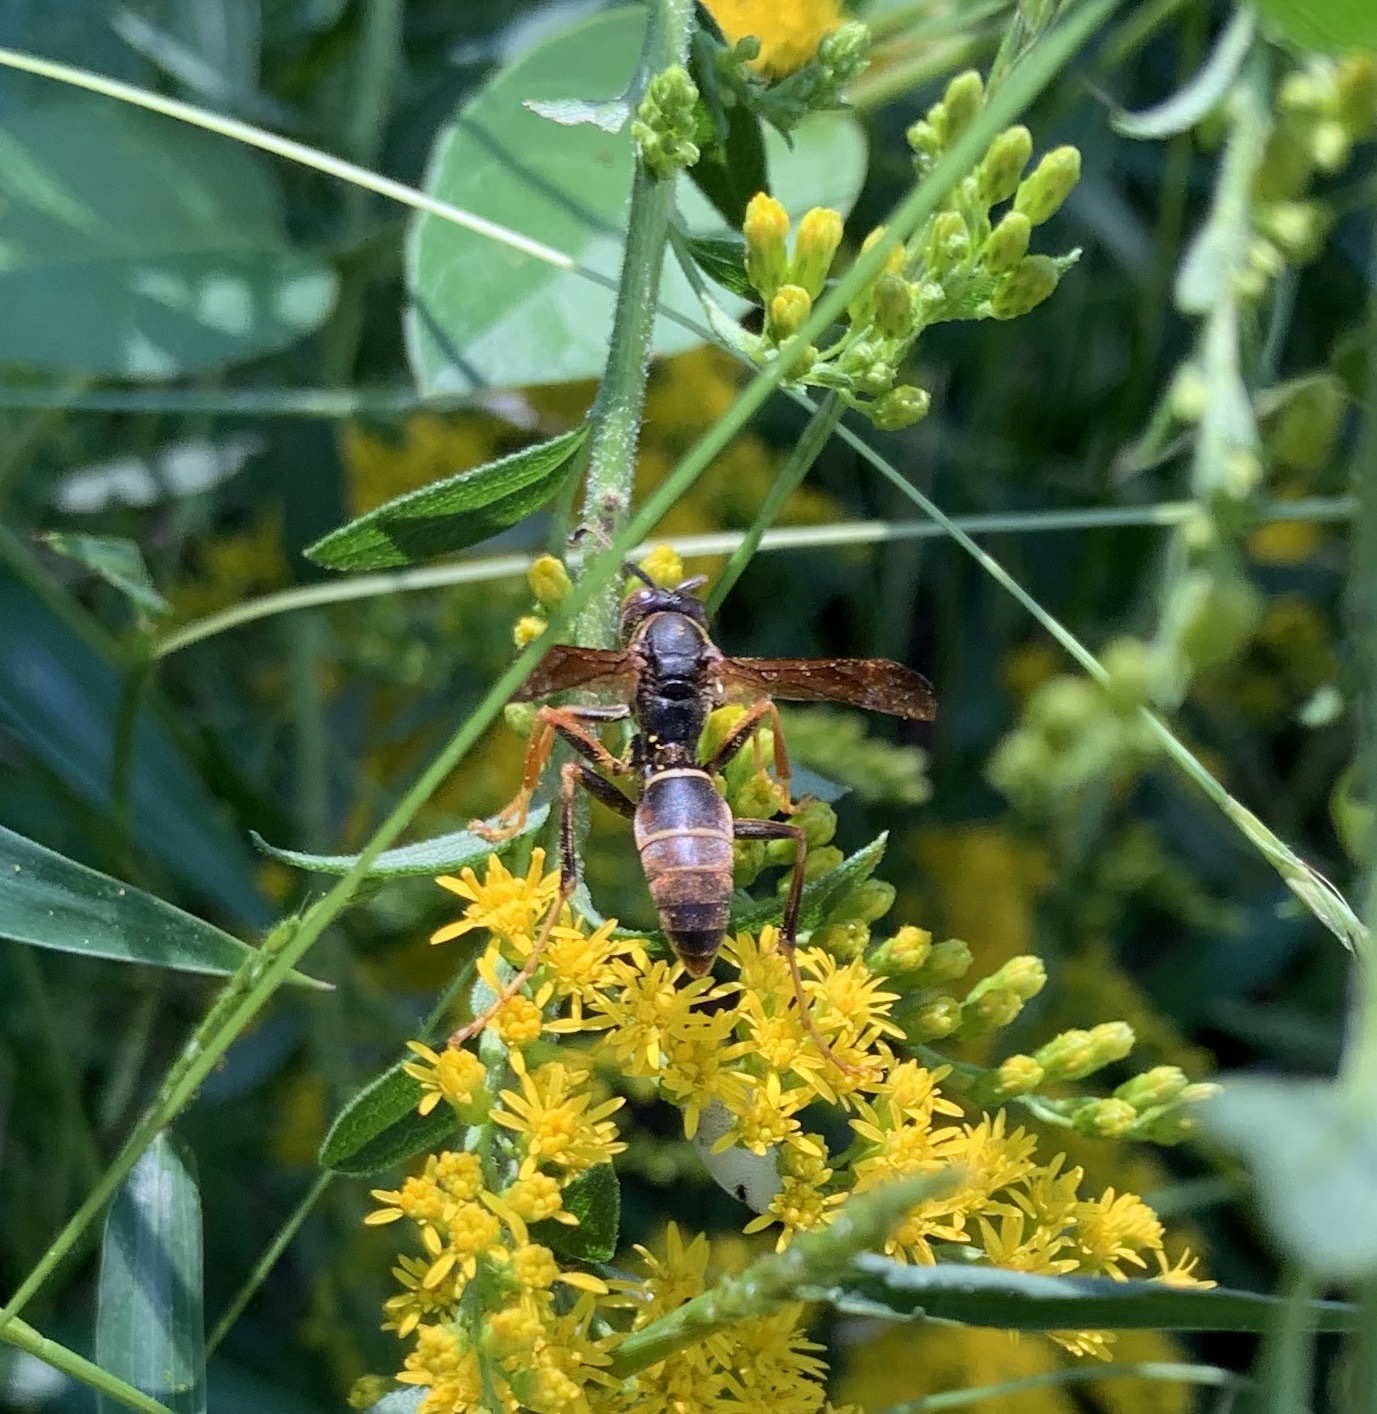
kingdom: Animalia
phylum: Arthropoda
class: Insecta
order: Hymenoptera
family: Eumenidae
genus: Polistes
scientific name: Polistes fuscatus
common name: Dark paper wasp
